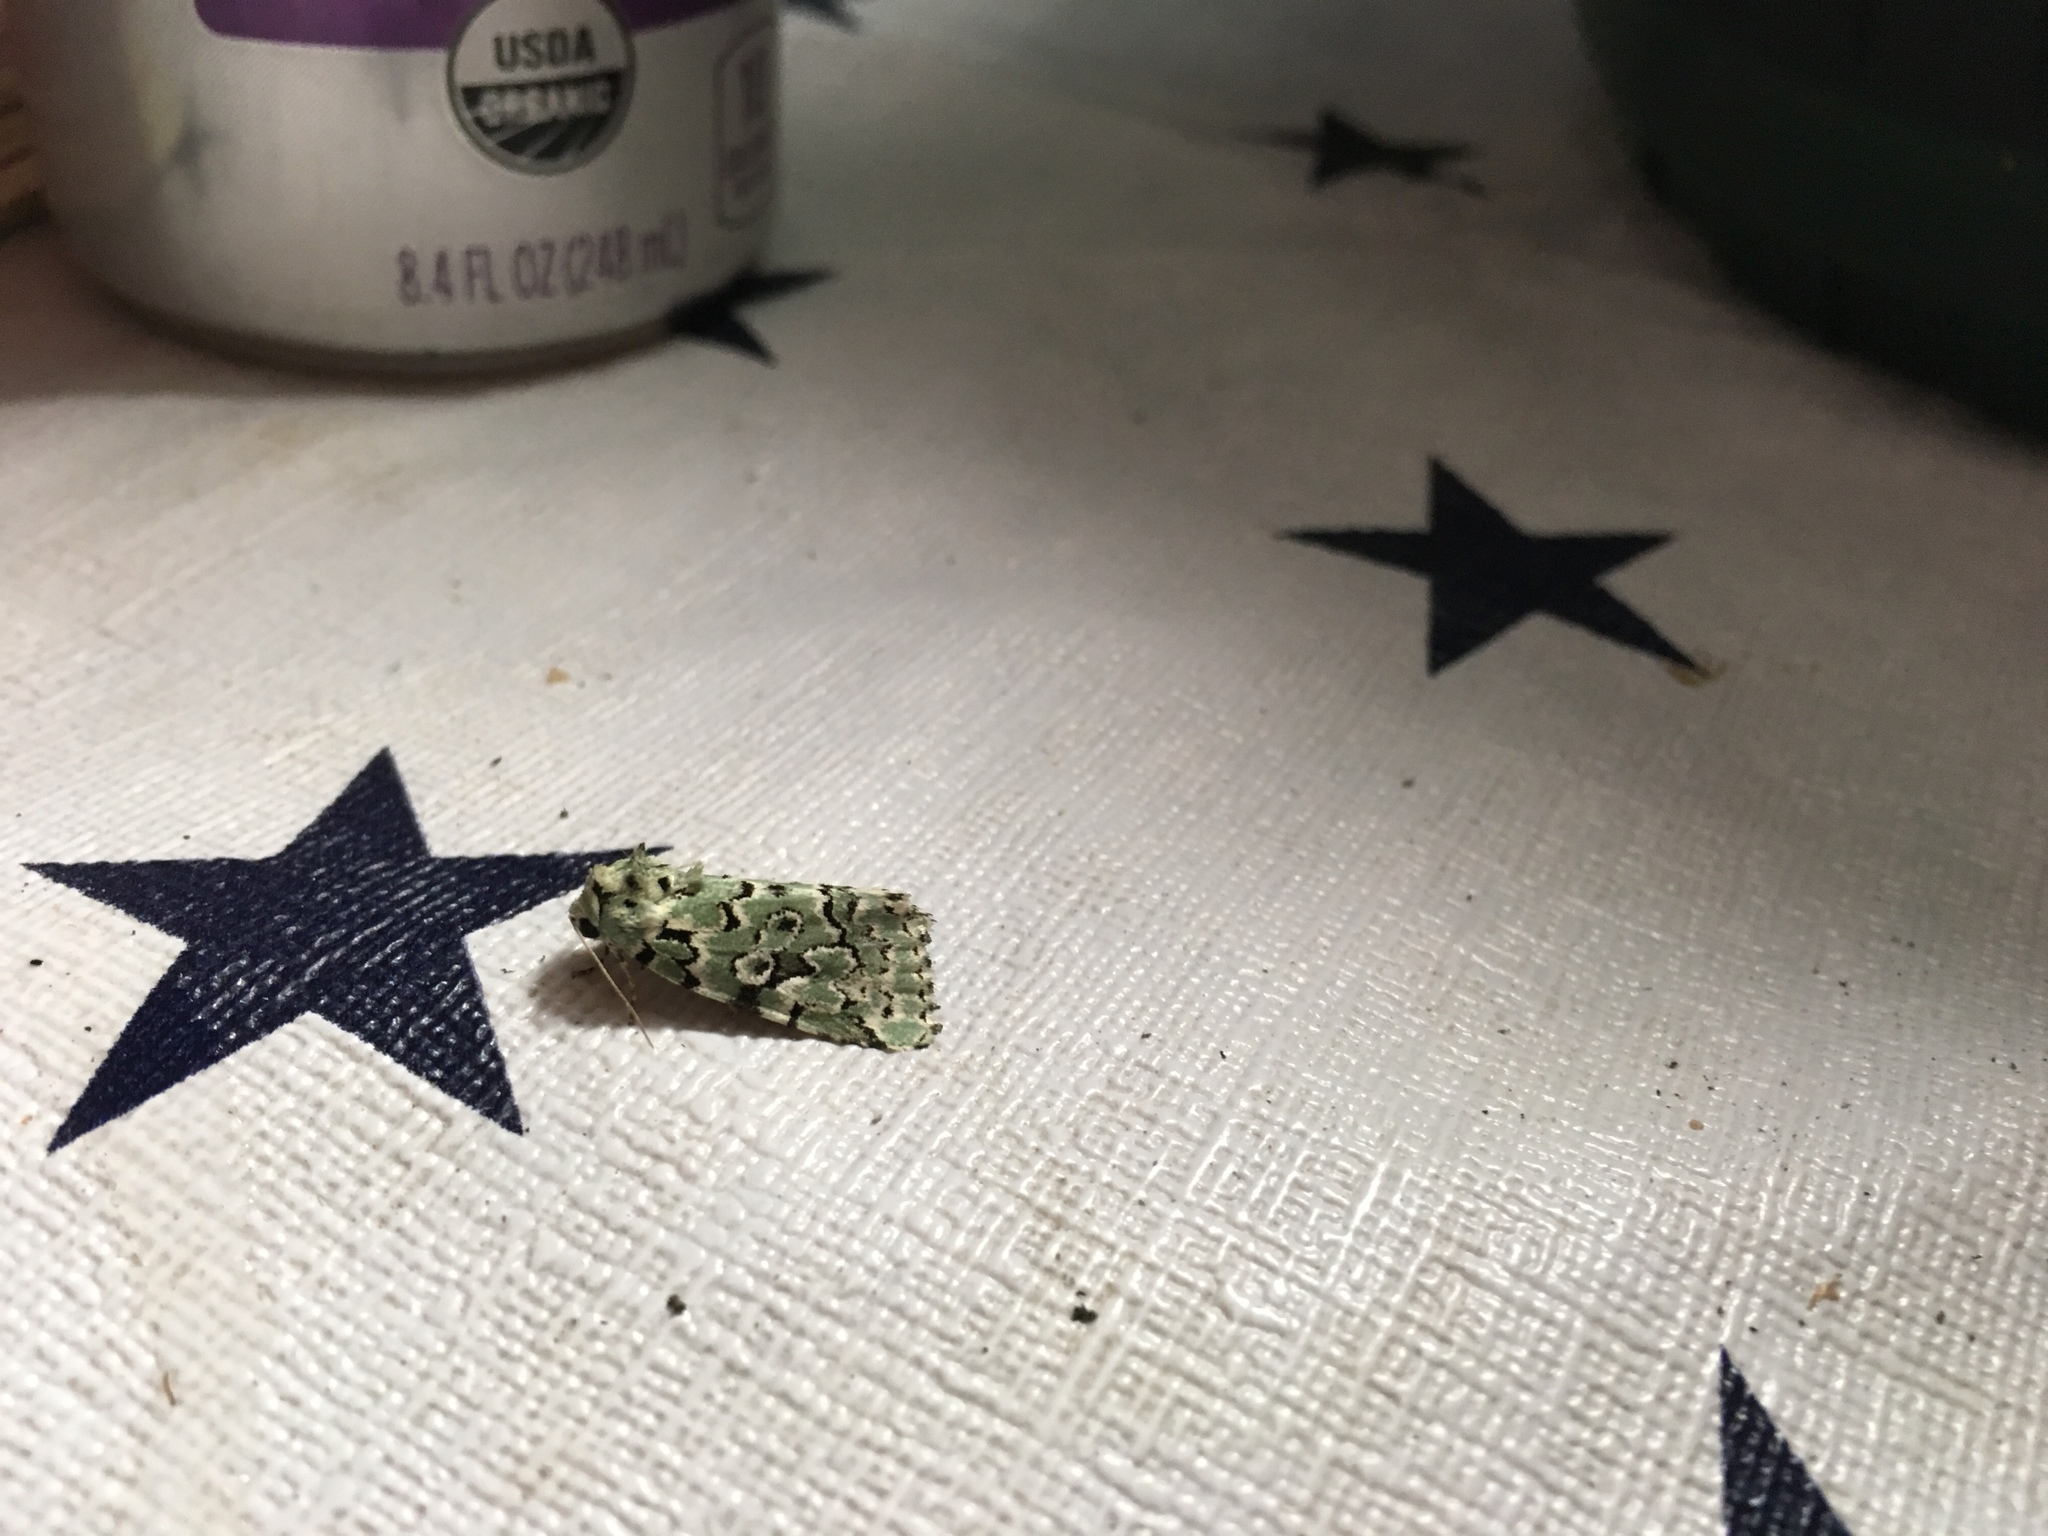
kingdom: Animalia
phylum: Arthropoda
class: Insecta
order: Lepidoptera
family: Noctuidae
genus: Bryolymnia
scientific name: Bryolymnia viridata
